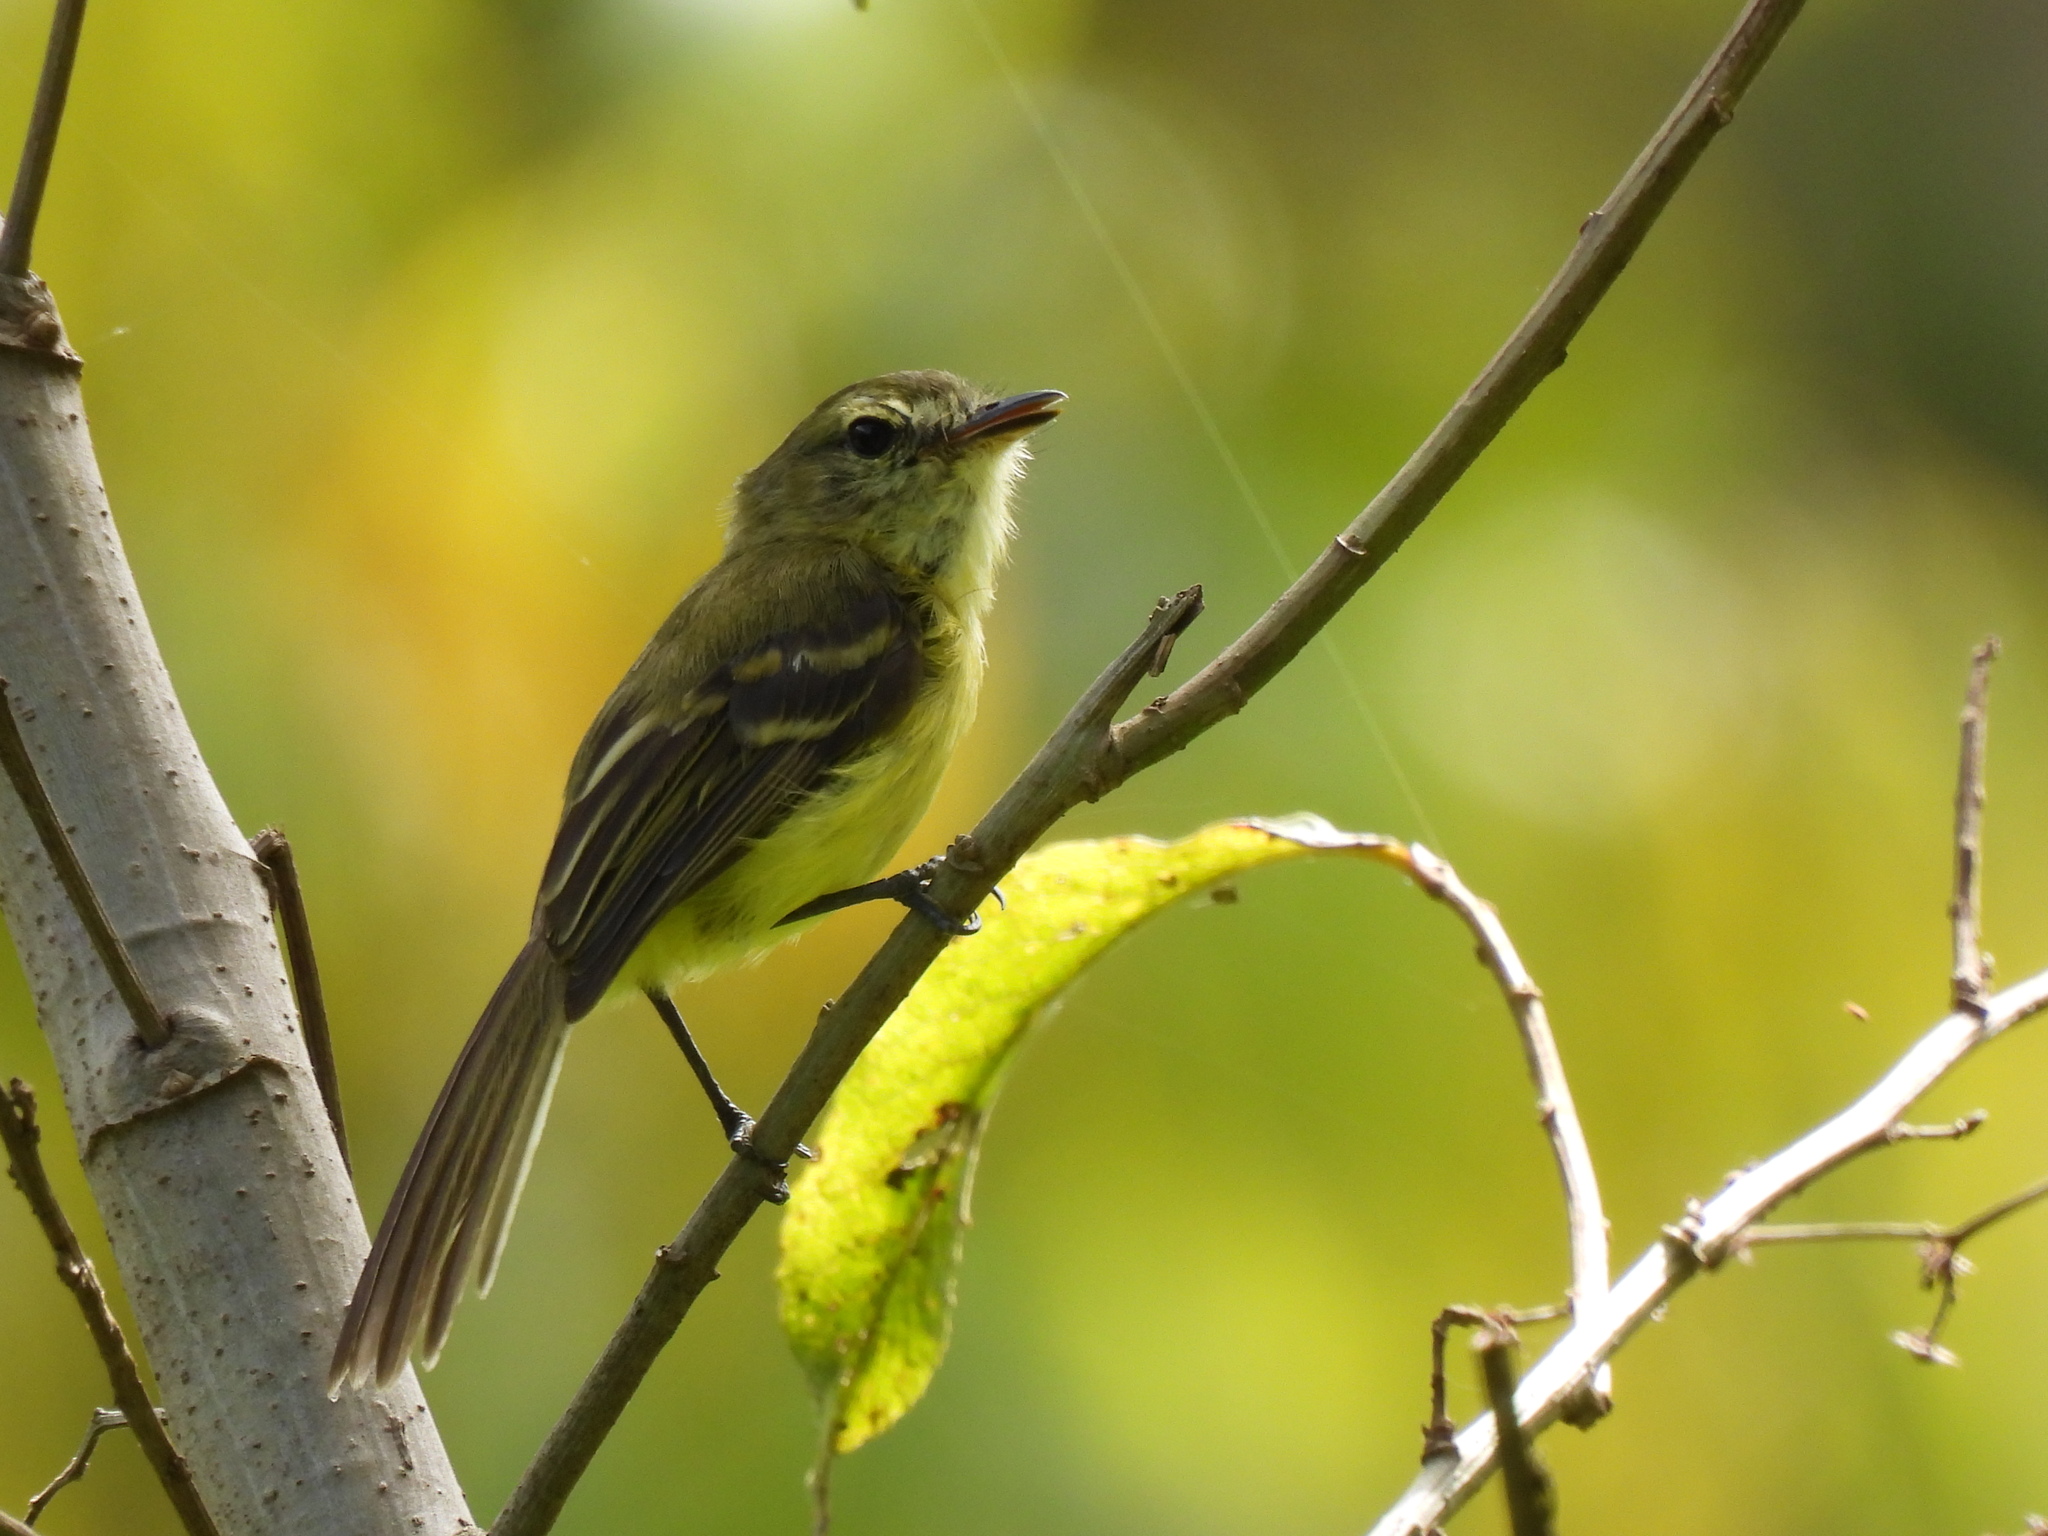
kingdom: Animalia
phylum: Chordata
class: Aves
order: Passeriformes
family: Tyrannidae
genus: Capsiempis
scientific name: Capsiempis flaveola
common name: Yellow tyrannulet
